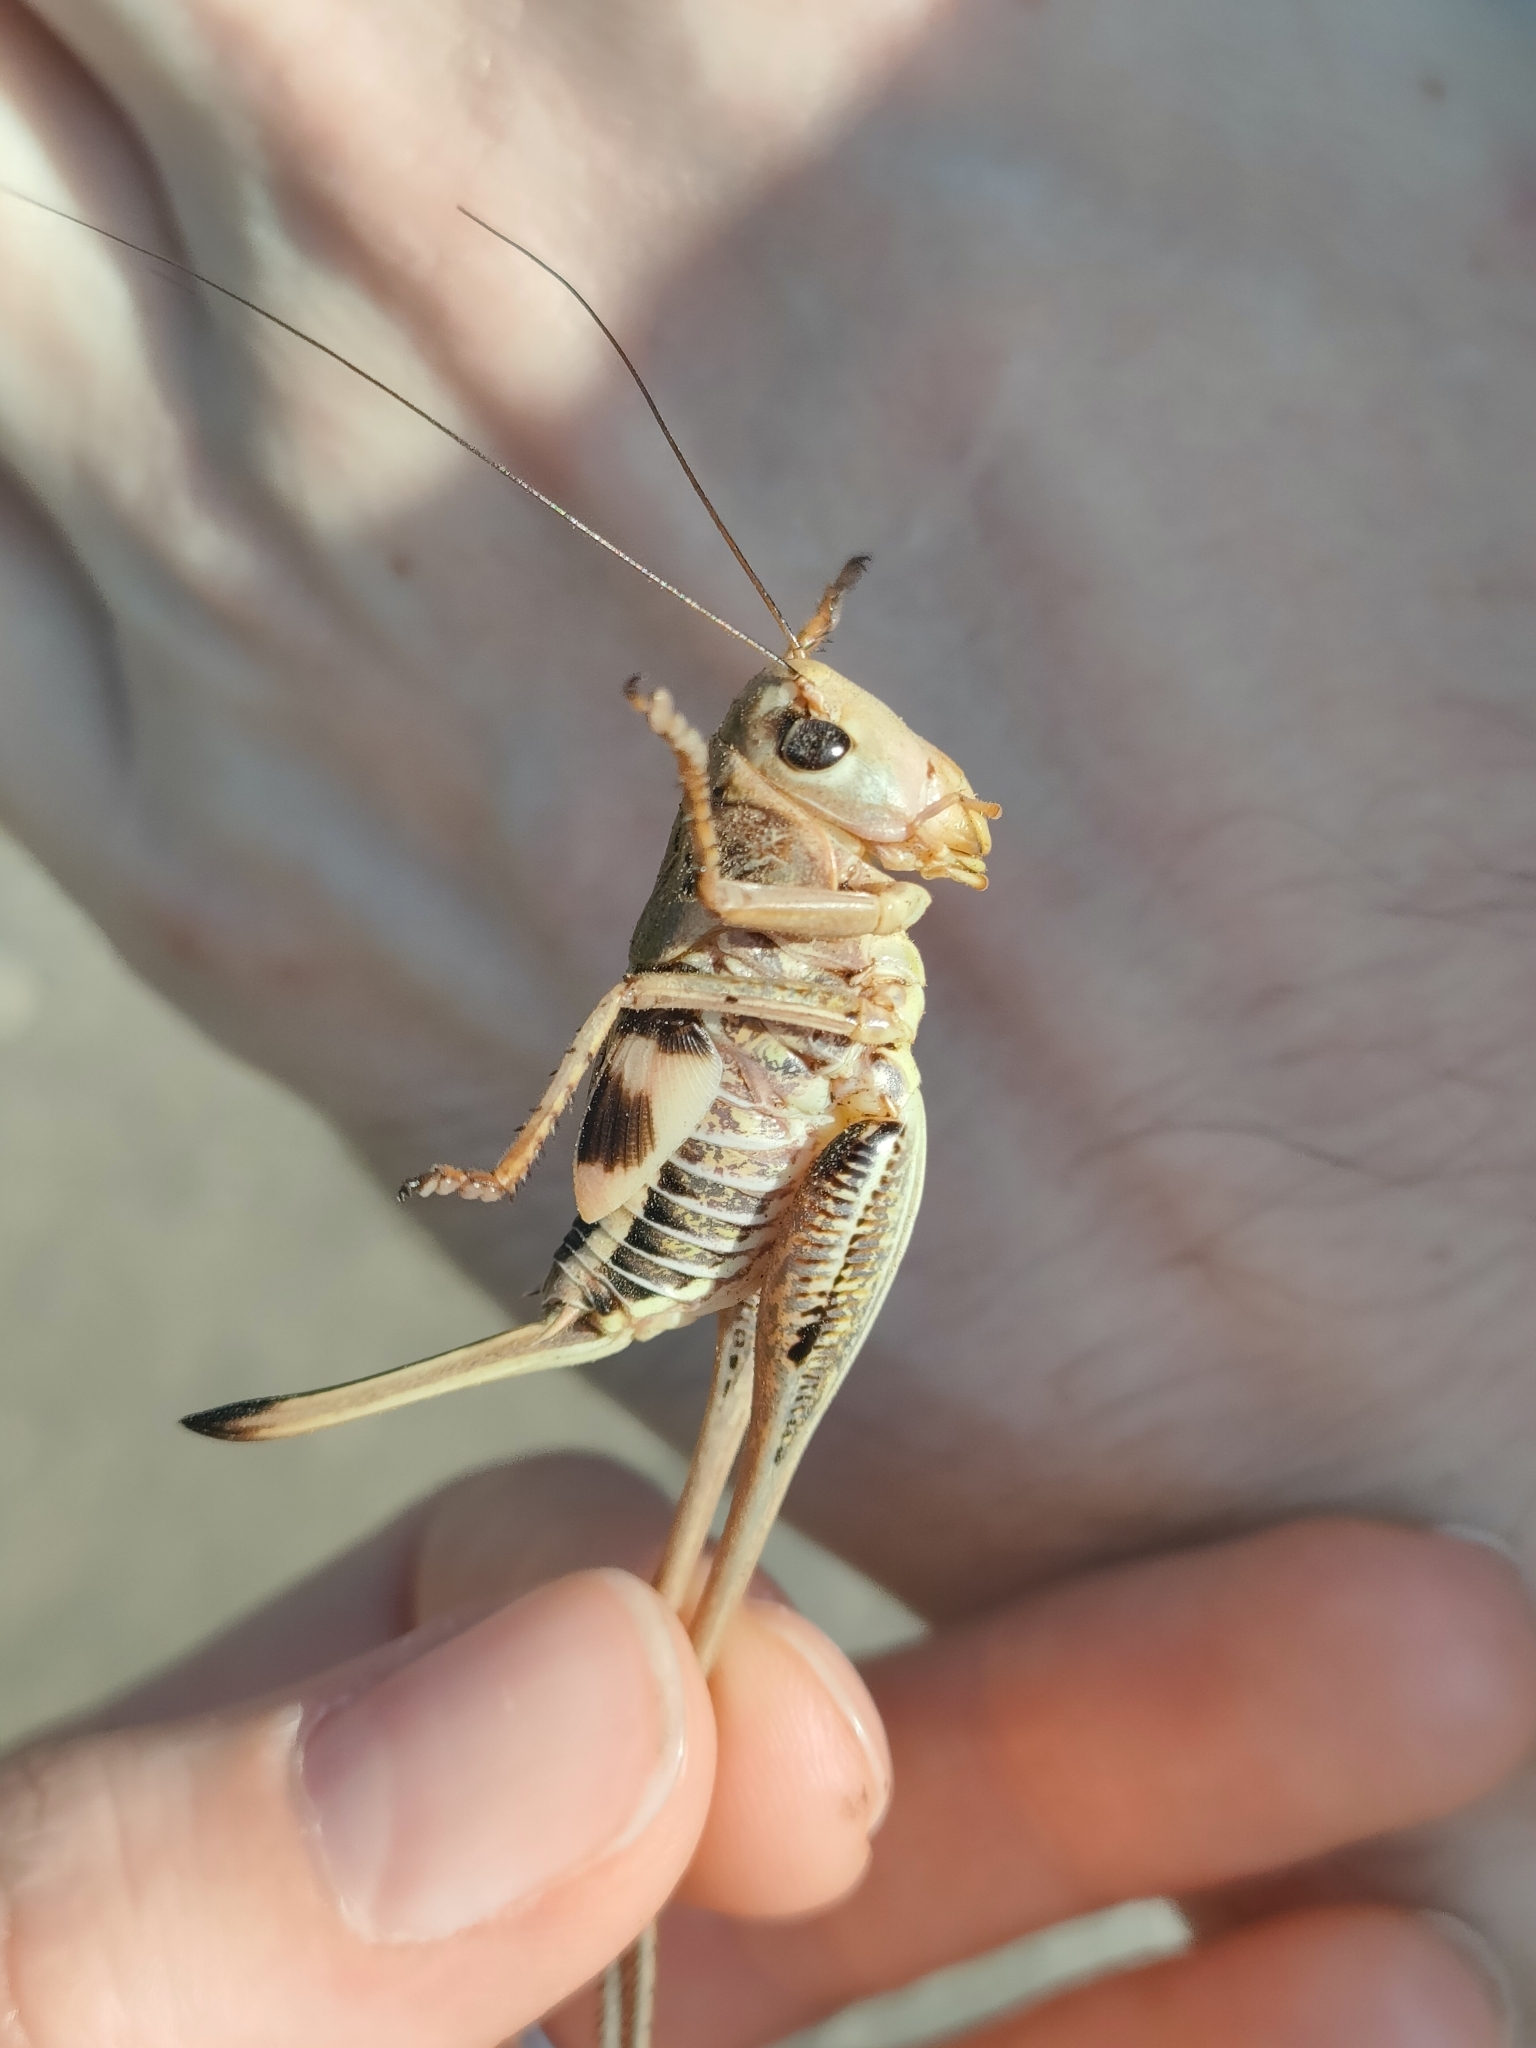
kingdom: Animalia
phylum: Arthropoda
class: Insecta
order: Orthoptera
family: Tettigoniidae
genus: Decticus
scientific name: Decticus albifrons
